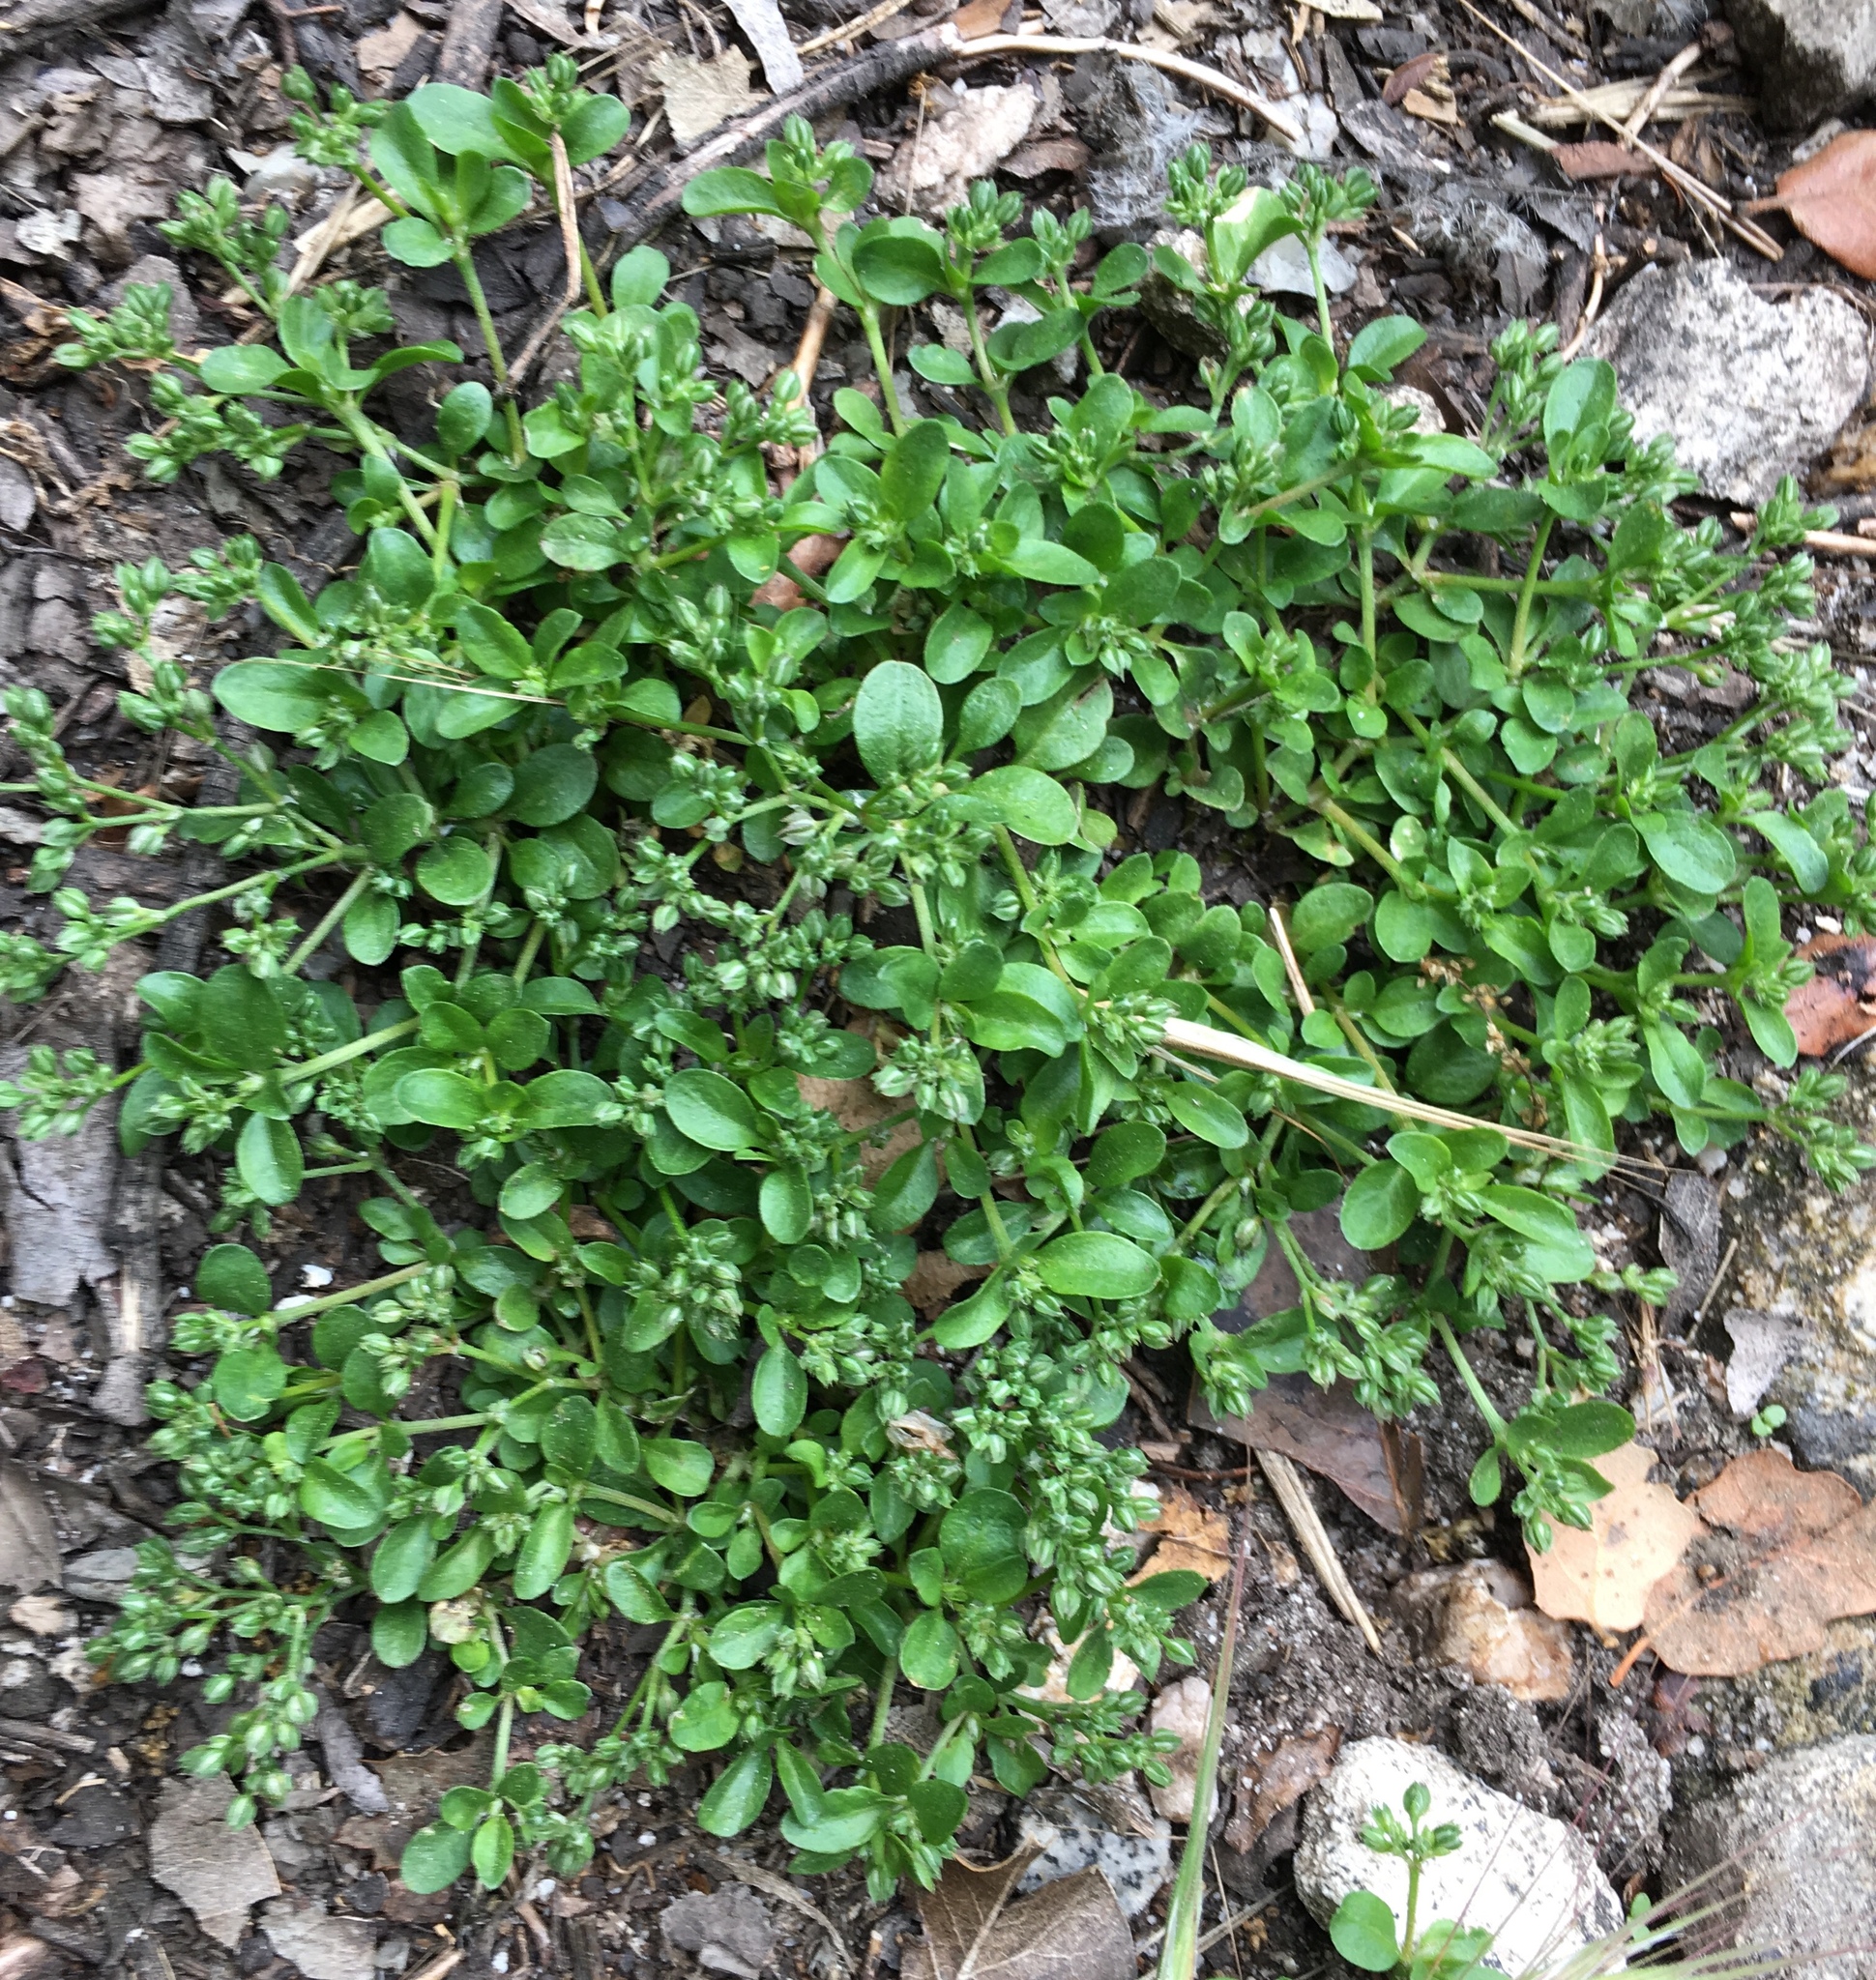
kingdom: Plantae
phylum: Tracheophyta
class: Magnoliopsida
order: Caryophyllales
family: Caryophyllaceae
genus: Polycarpon
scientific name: Polycarpon tetraphyllum
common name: Four-leaved all-seed
